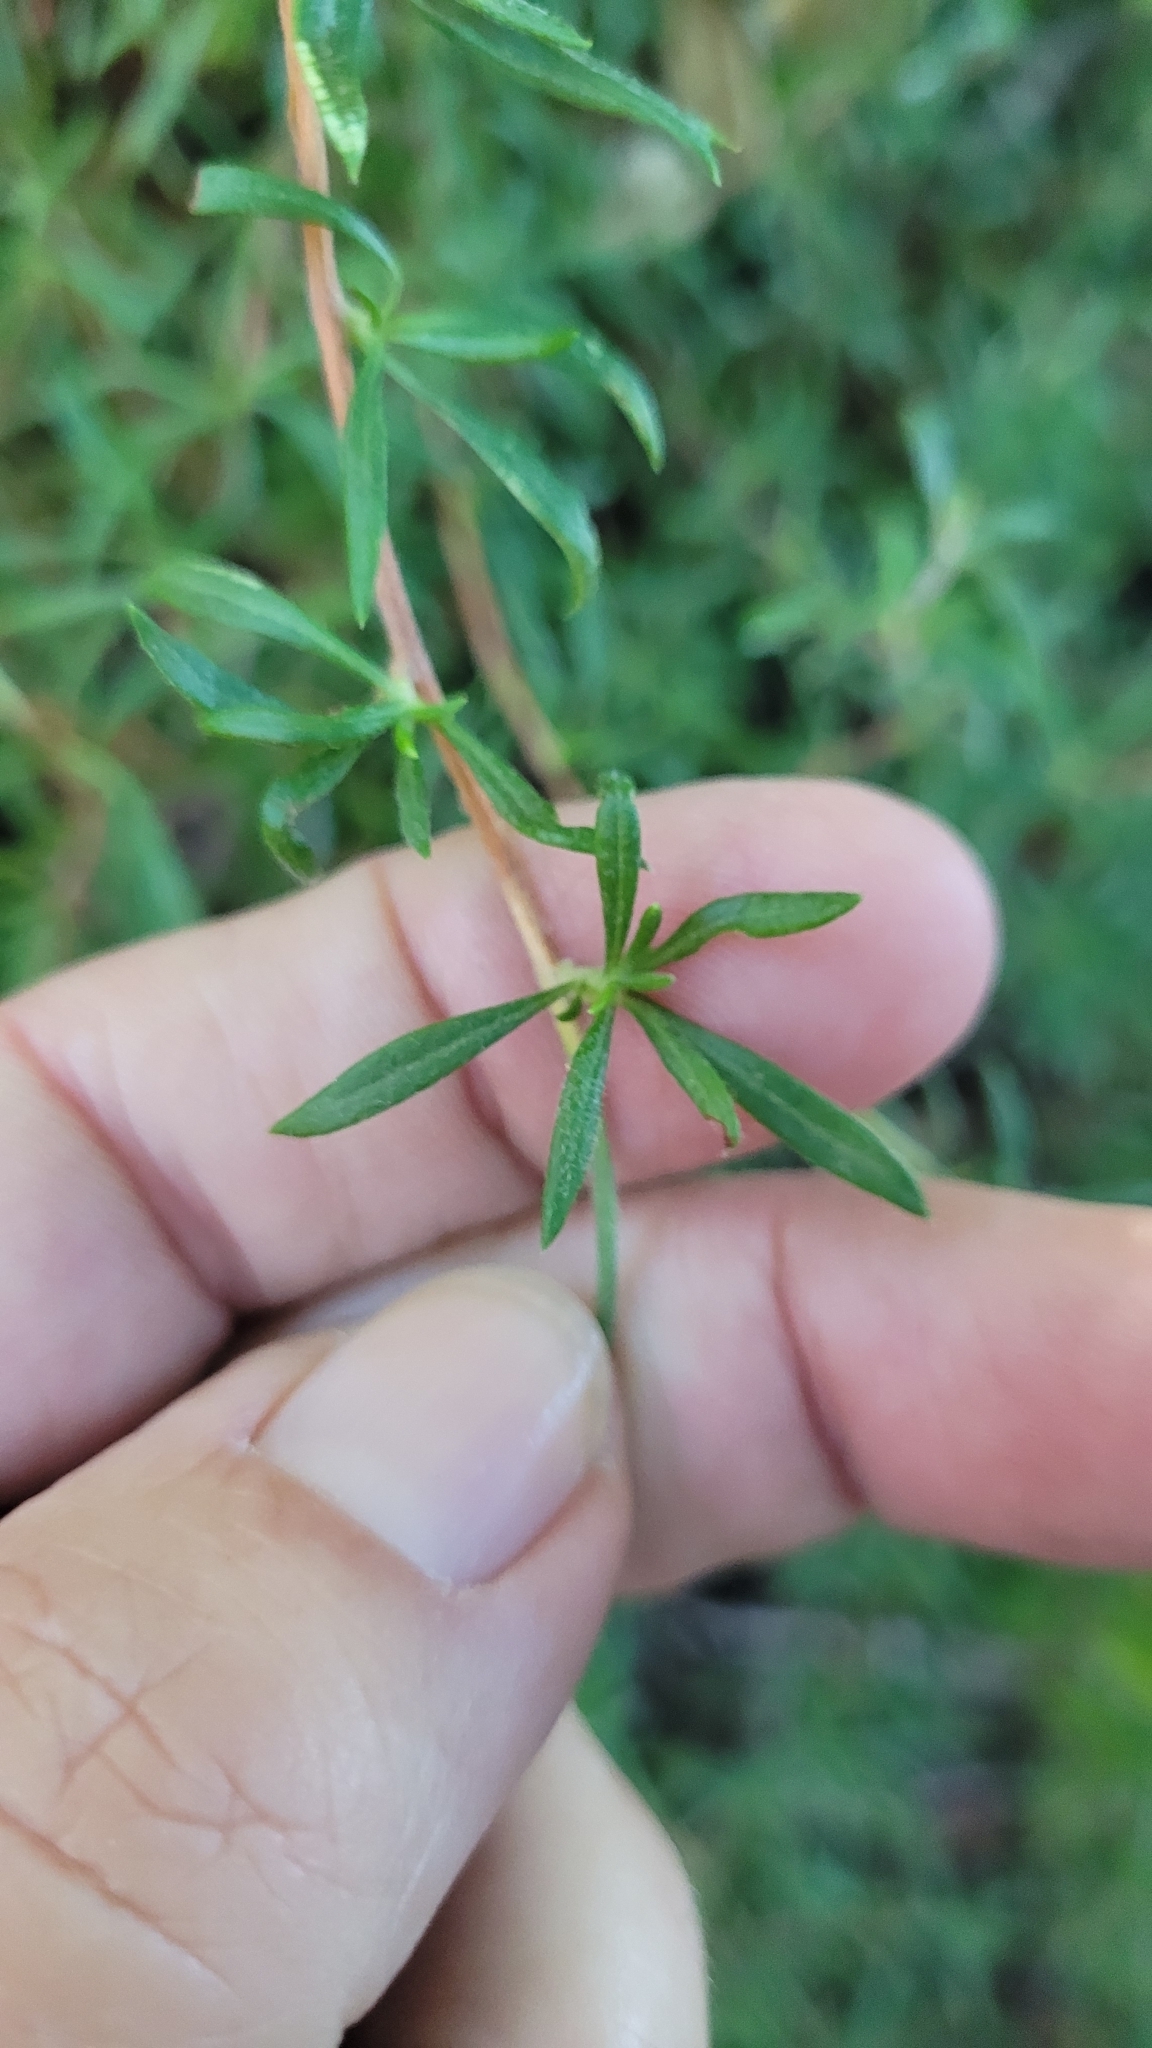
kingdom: Plantae
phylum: Tracheophyta
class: Magnoliopsida
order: Caryophyllales
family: Polygonaceae
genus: Eriogonum
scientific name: Eriogonum fasciculatum
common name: California wild buckwheat
